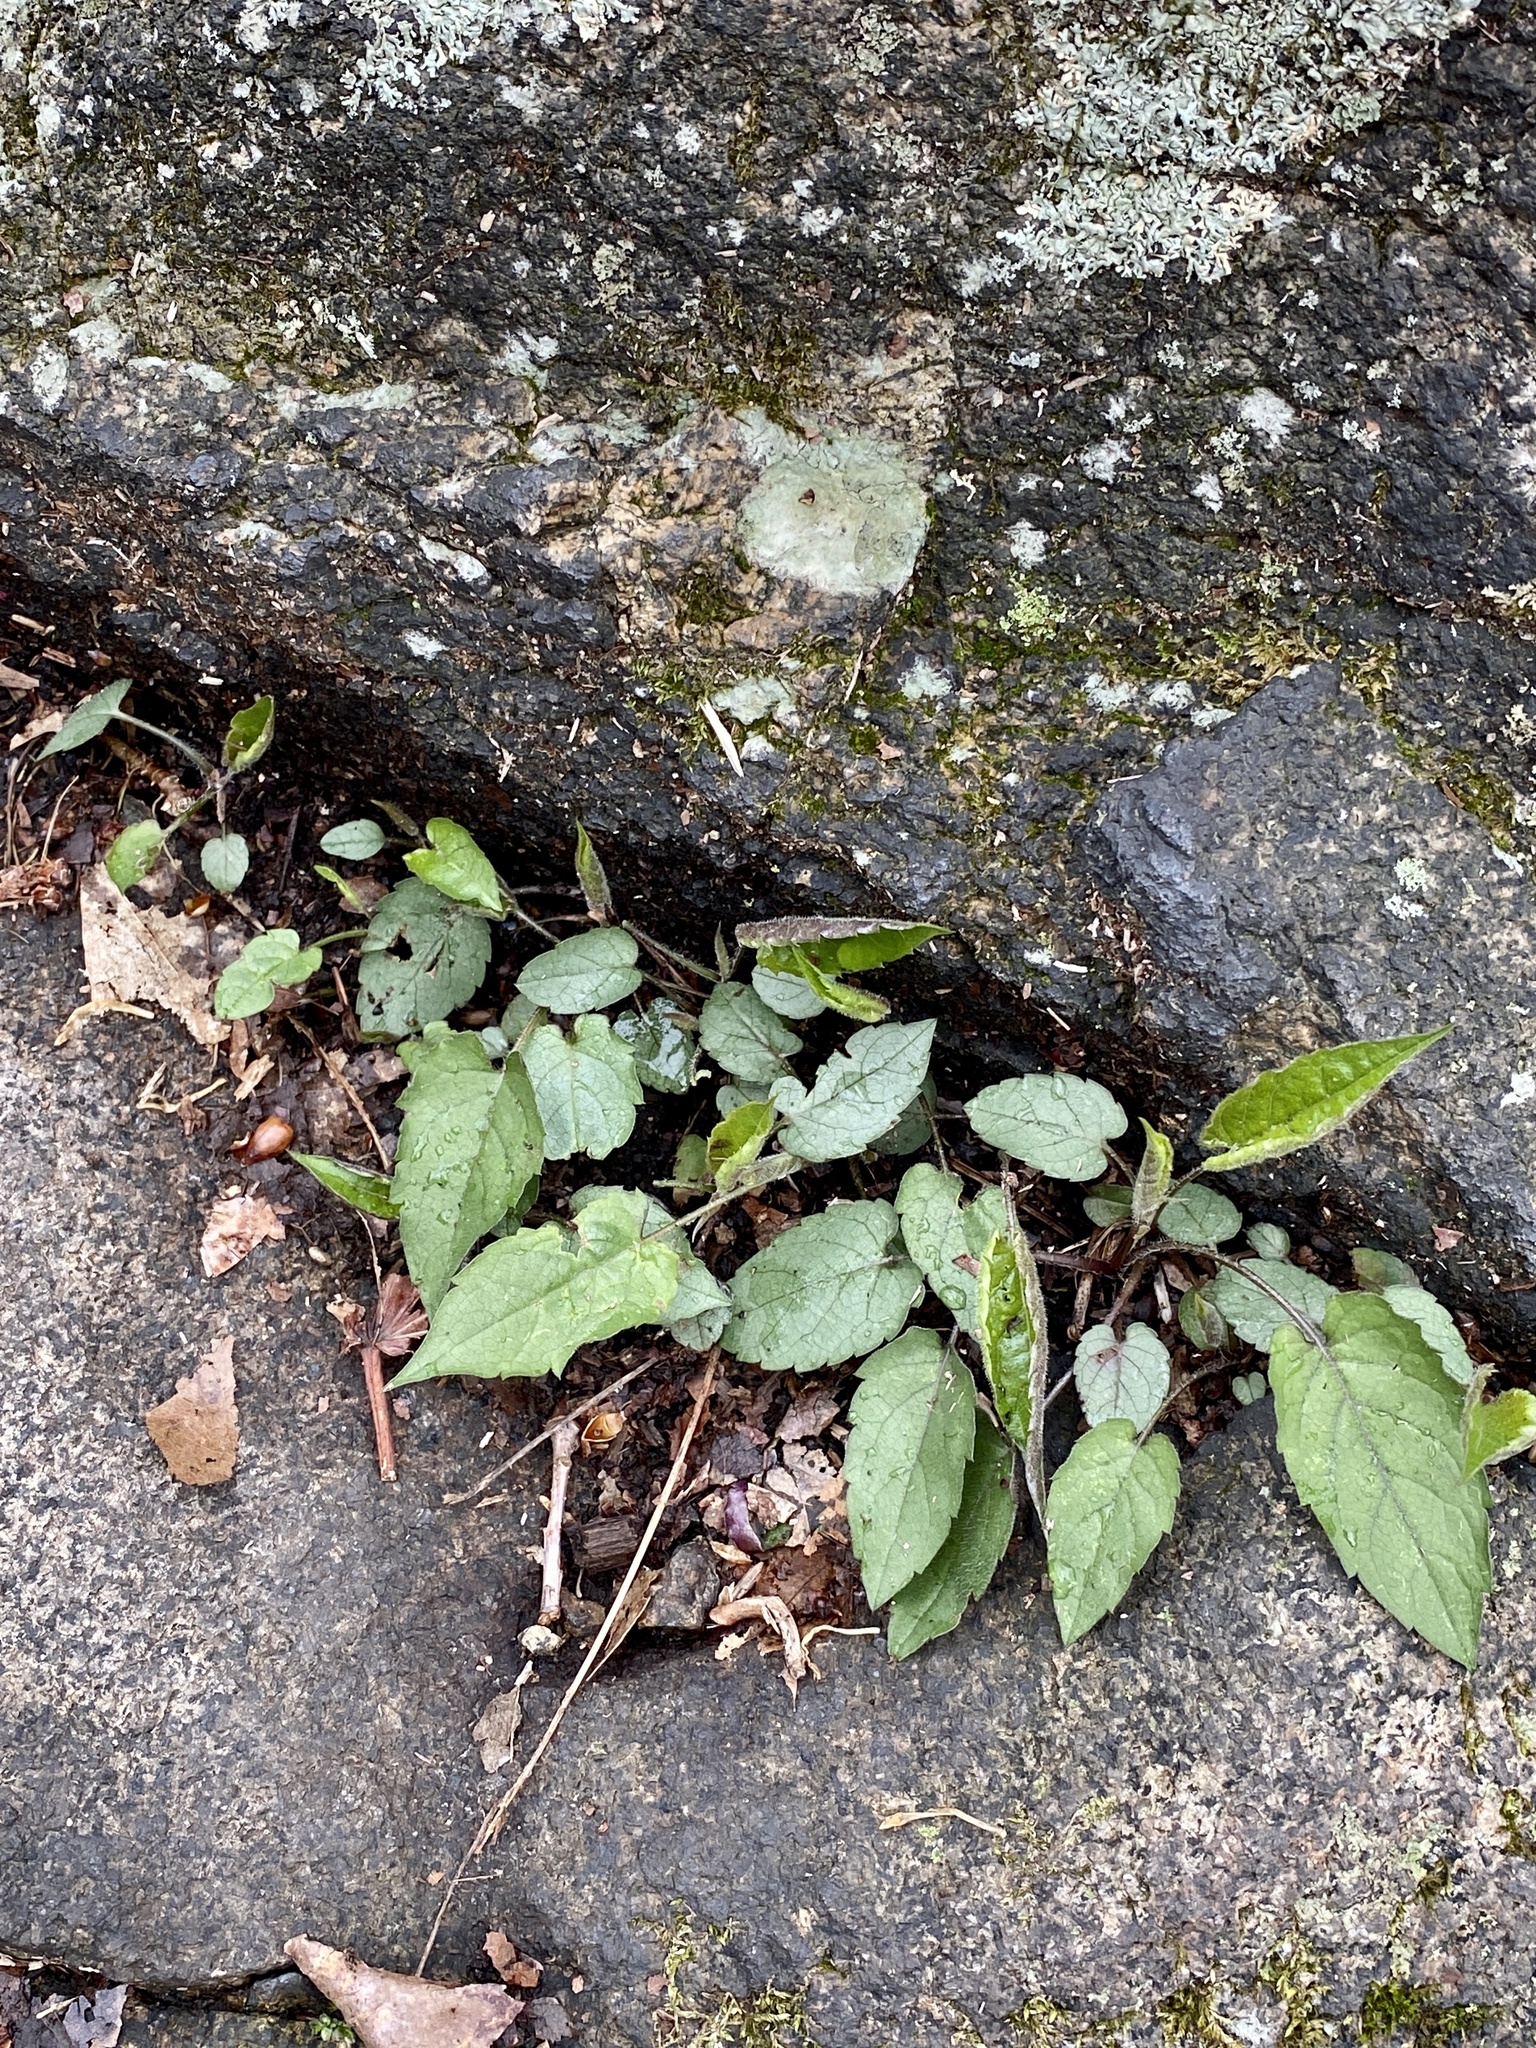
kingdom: Plantae
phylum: Tracheophyta
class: Magnoliopsida
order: Asterales
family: Asteraceae
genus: Eurybia
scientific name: Eurybia divaricata
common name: White wood aster
